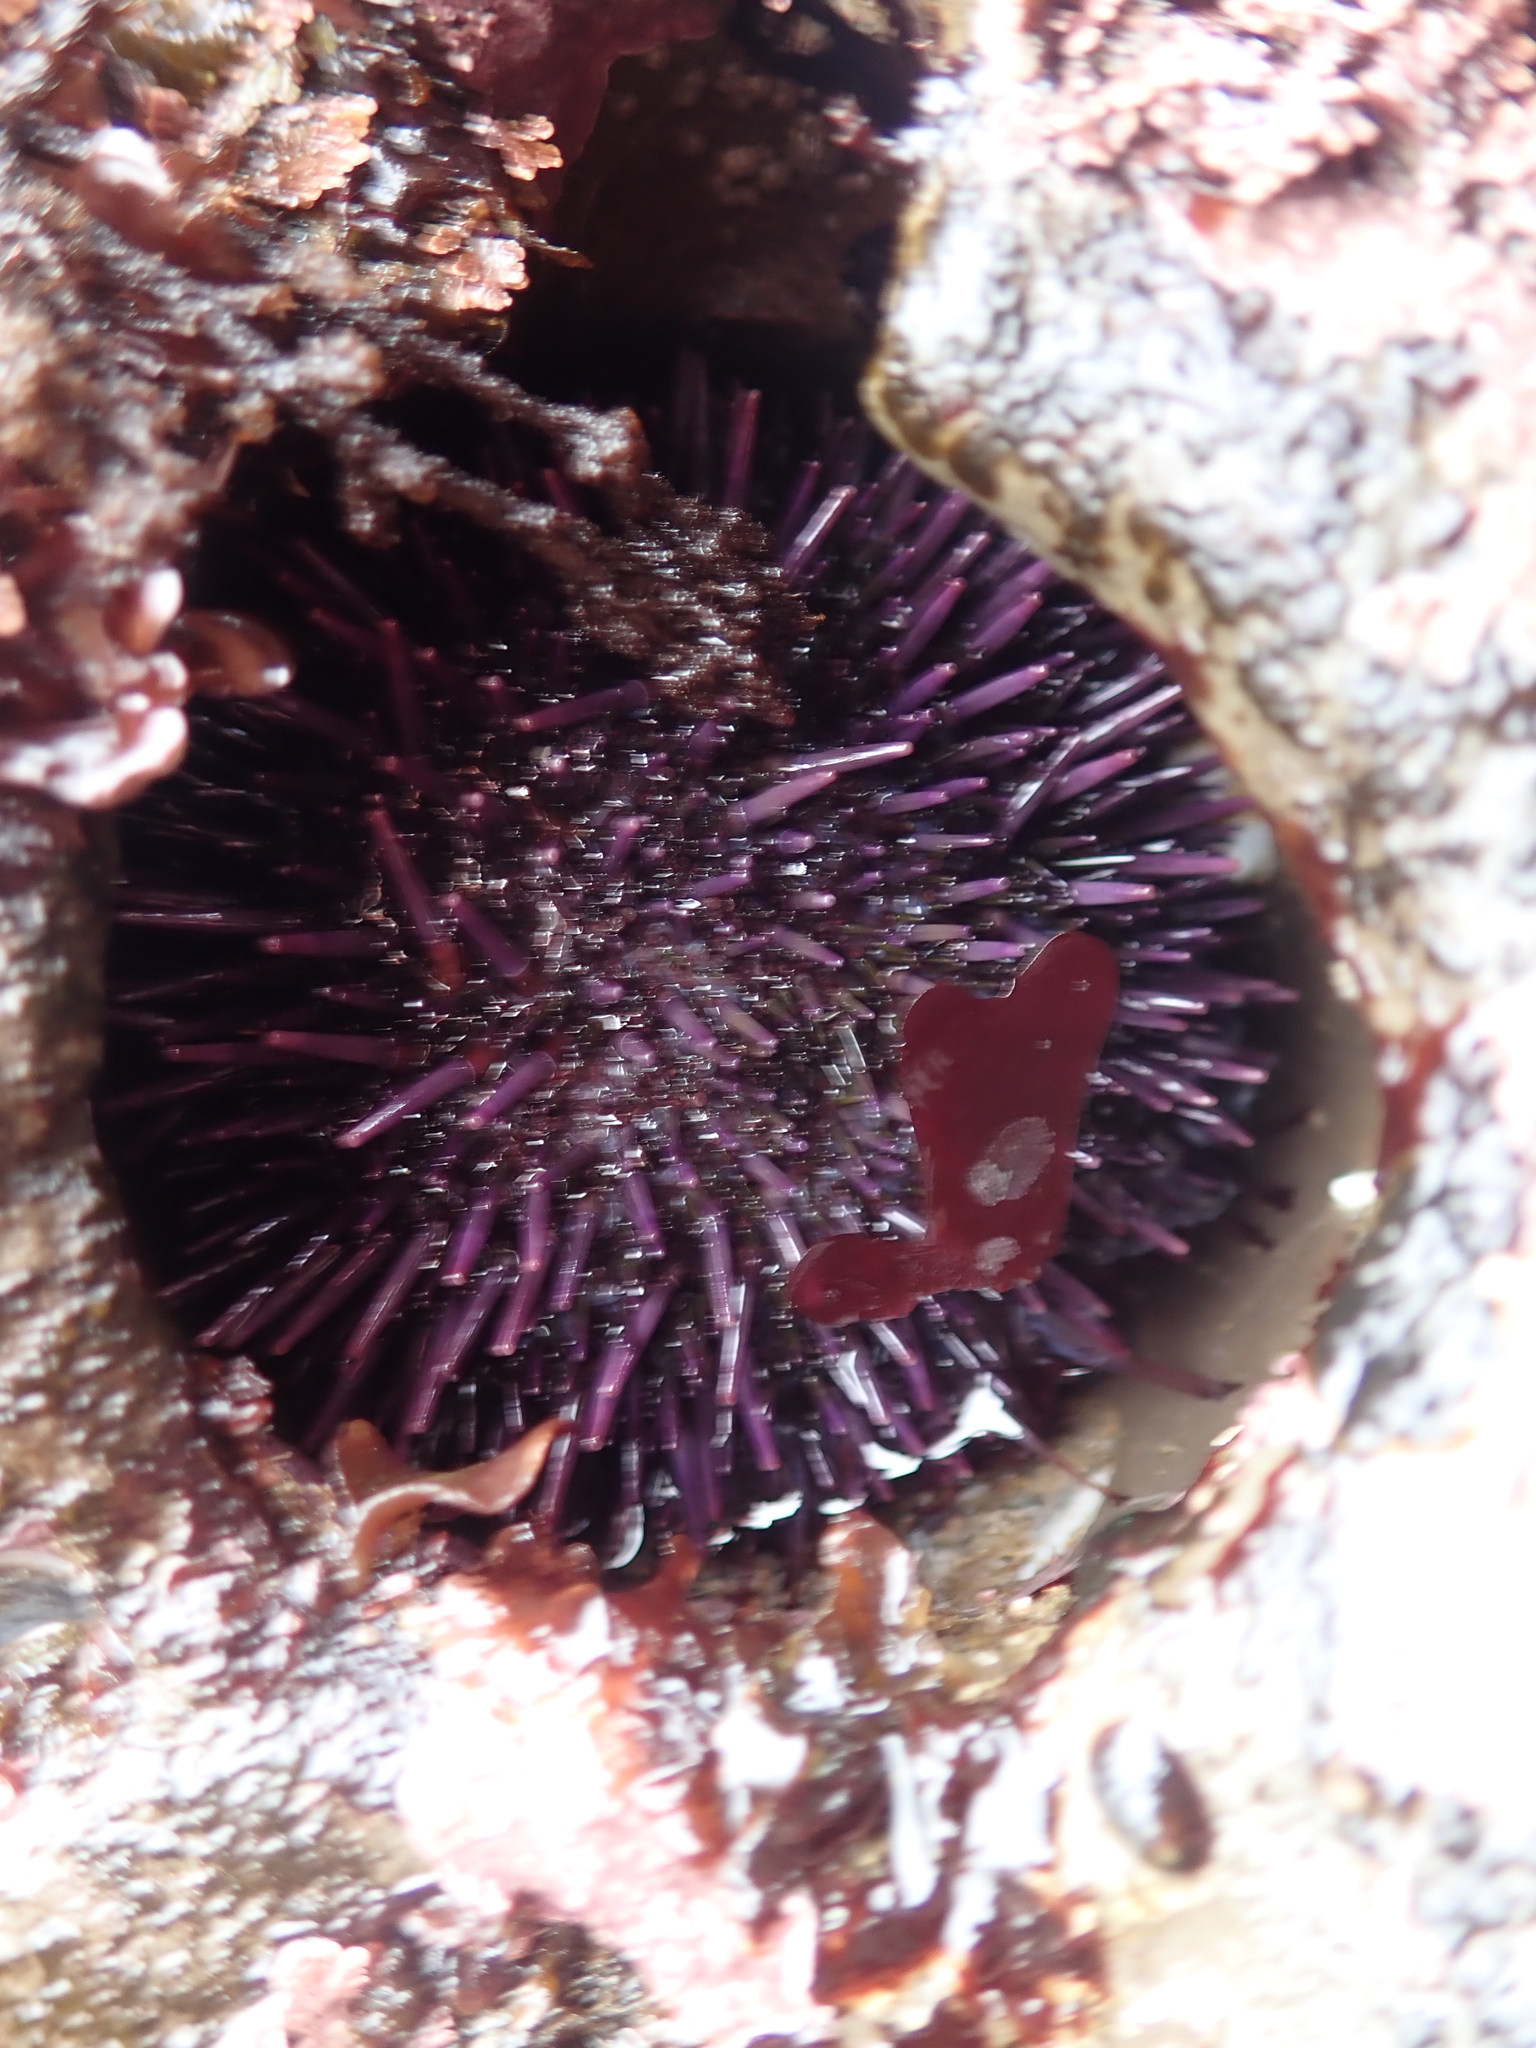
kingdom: Animalia
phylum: Echinodermata
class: Echinoidea
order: Camarodonta
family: Strongylocentrotidae
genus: Strongylocentrotus
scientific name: Strongylocentrotus purpuratus
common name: Purple sea urchin
